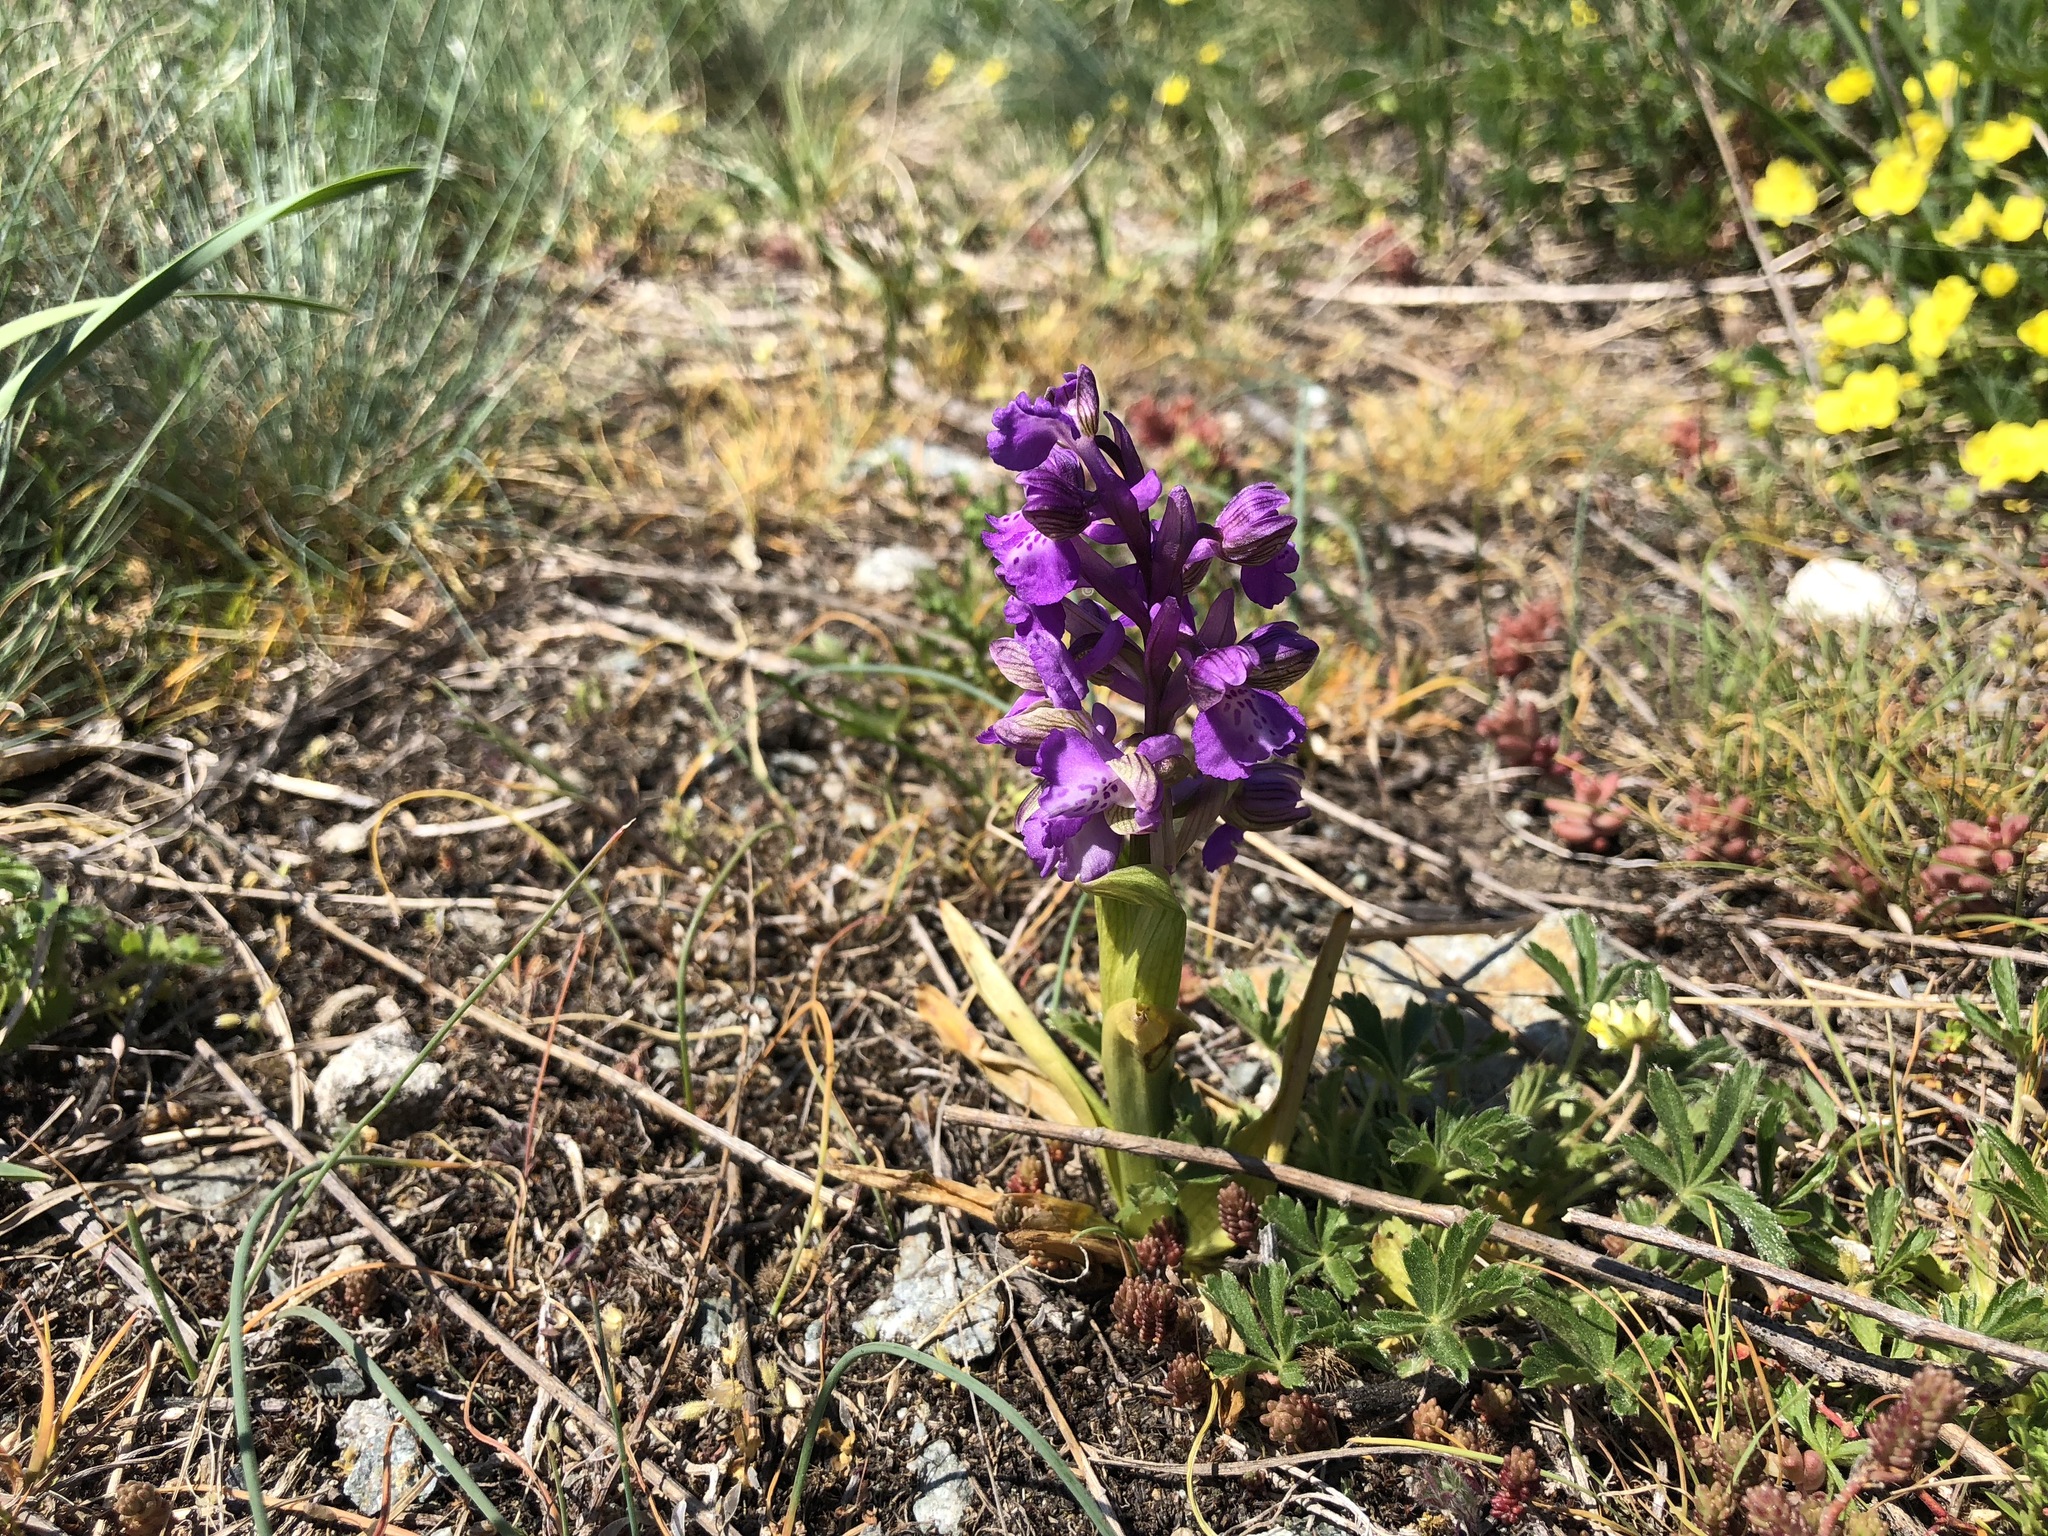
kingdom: Plantae
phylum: Tracheophyta
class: Liliopsida
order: Asparagales
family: Orchidaceae
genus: Anacamptis
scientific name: Anacamptis morio
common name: Green-winged orchid
